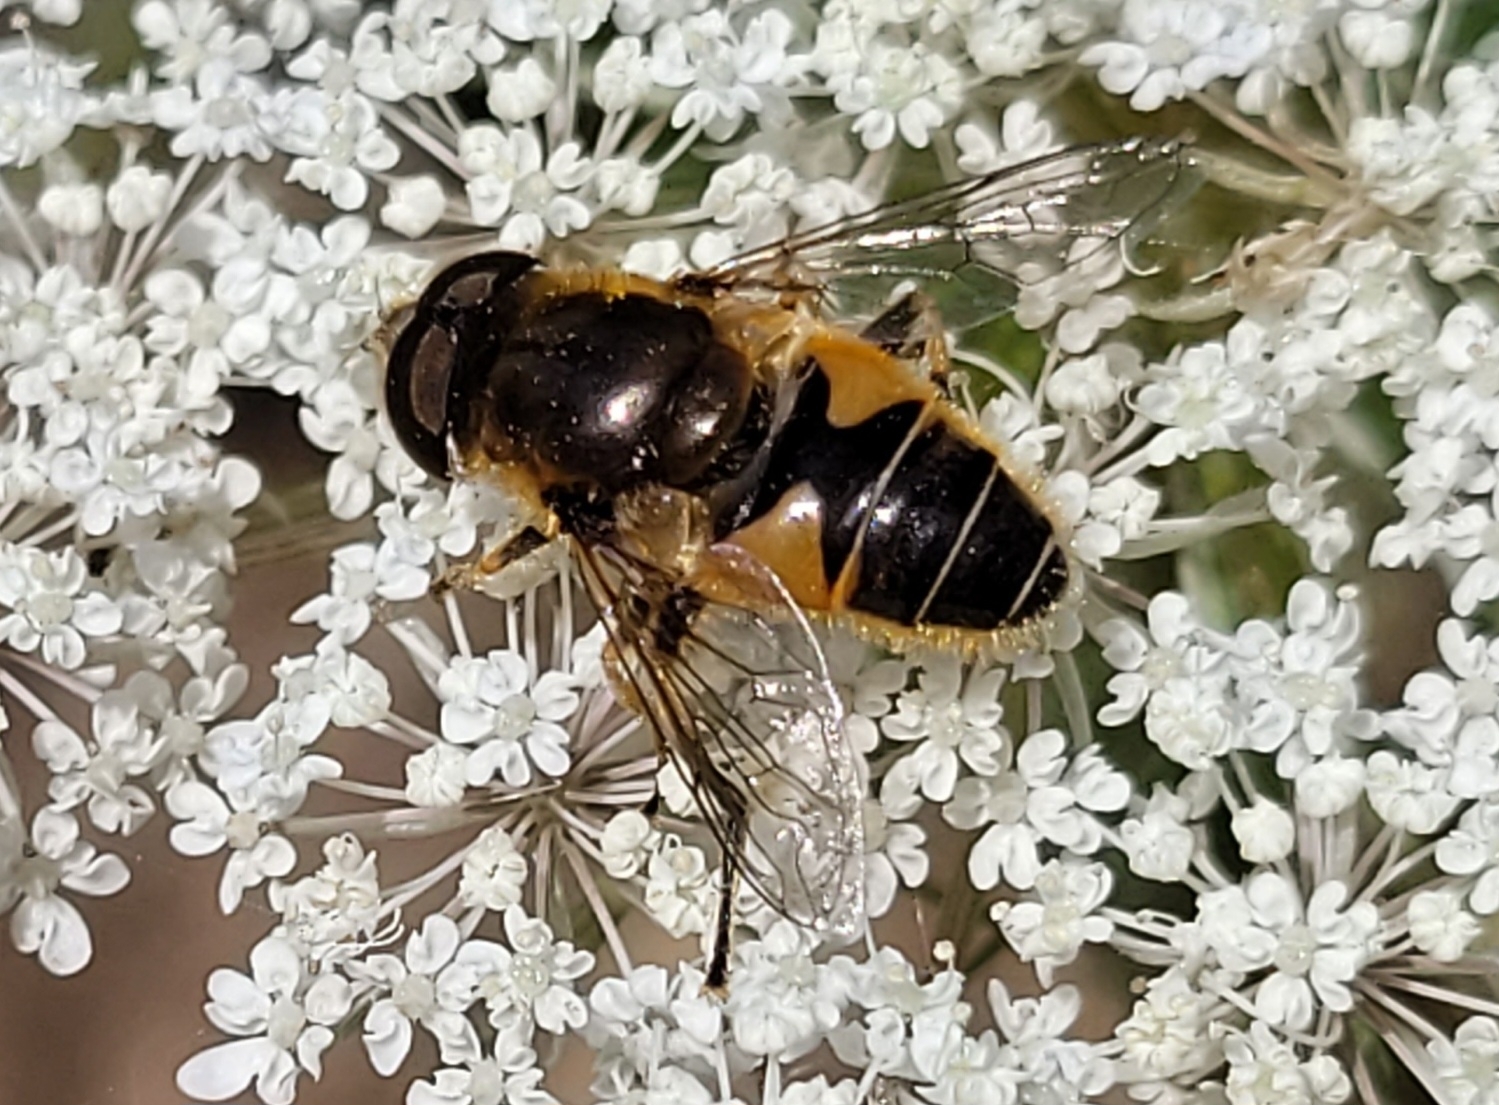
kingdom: Animalia
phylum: Arthropoda
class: Insecta
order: Diptera
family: Syrphidae
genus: Eristalis
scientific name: Eristalis nemorum
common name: Orange-spined drone fly
